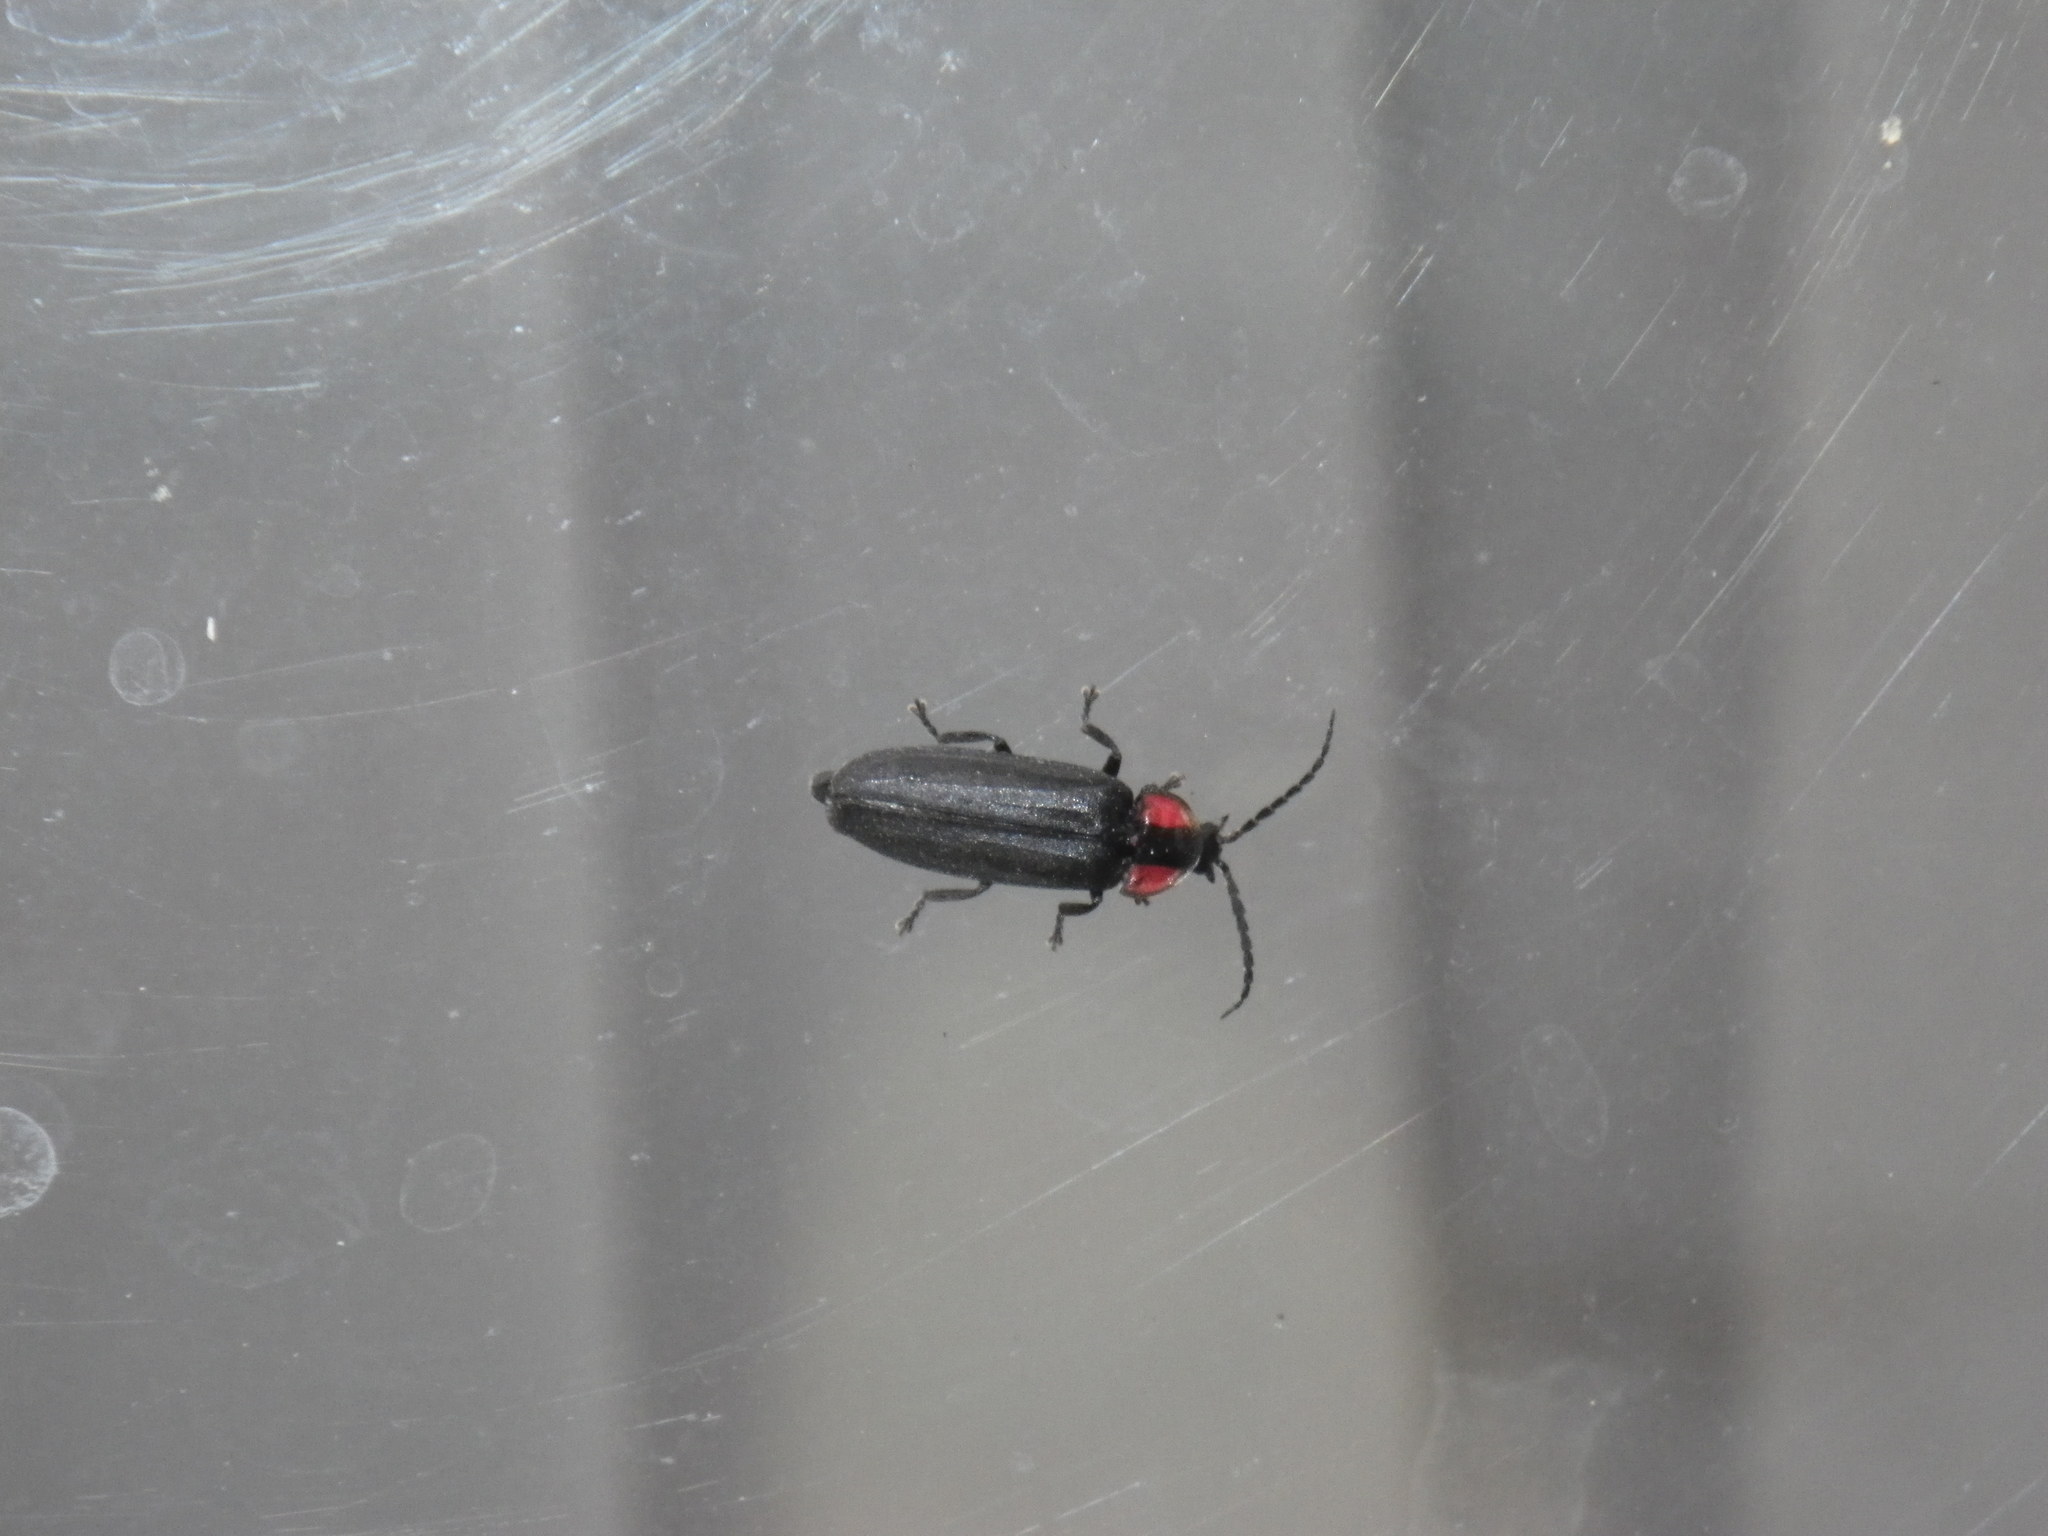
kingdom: Animalia
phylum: Arthropoda
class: Insecta
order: Coleoptera
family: Lampyridae
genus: Photinus
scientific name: Photinus californica
